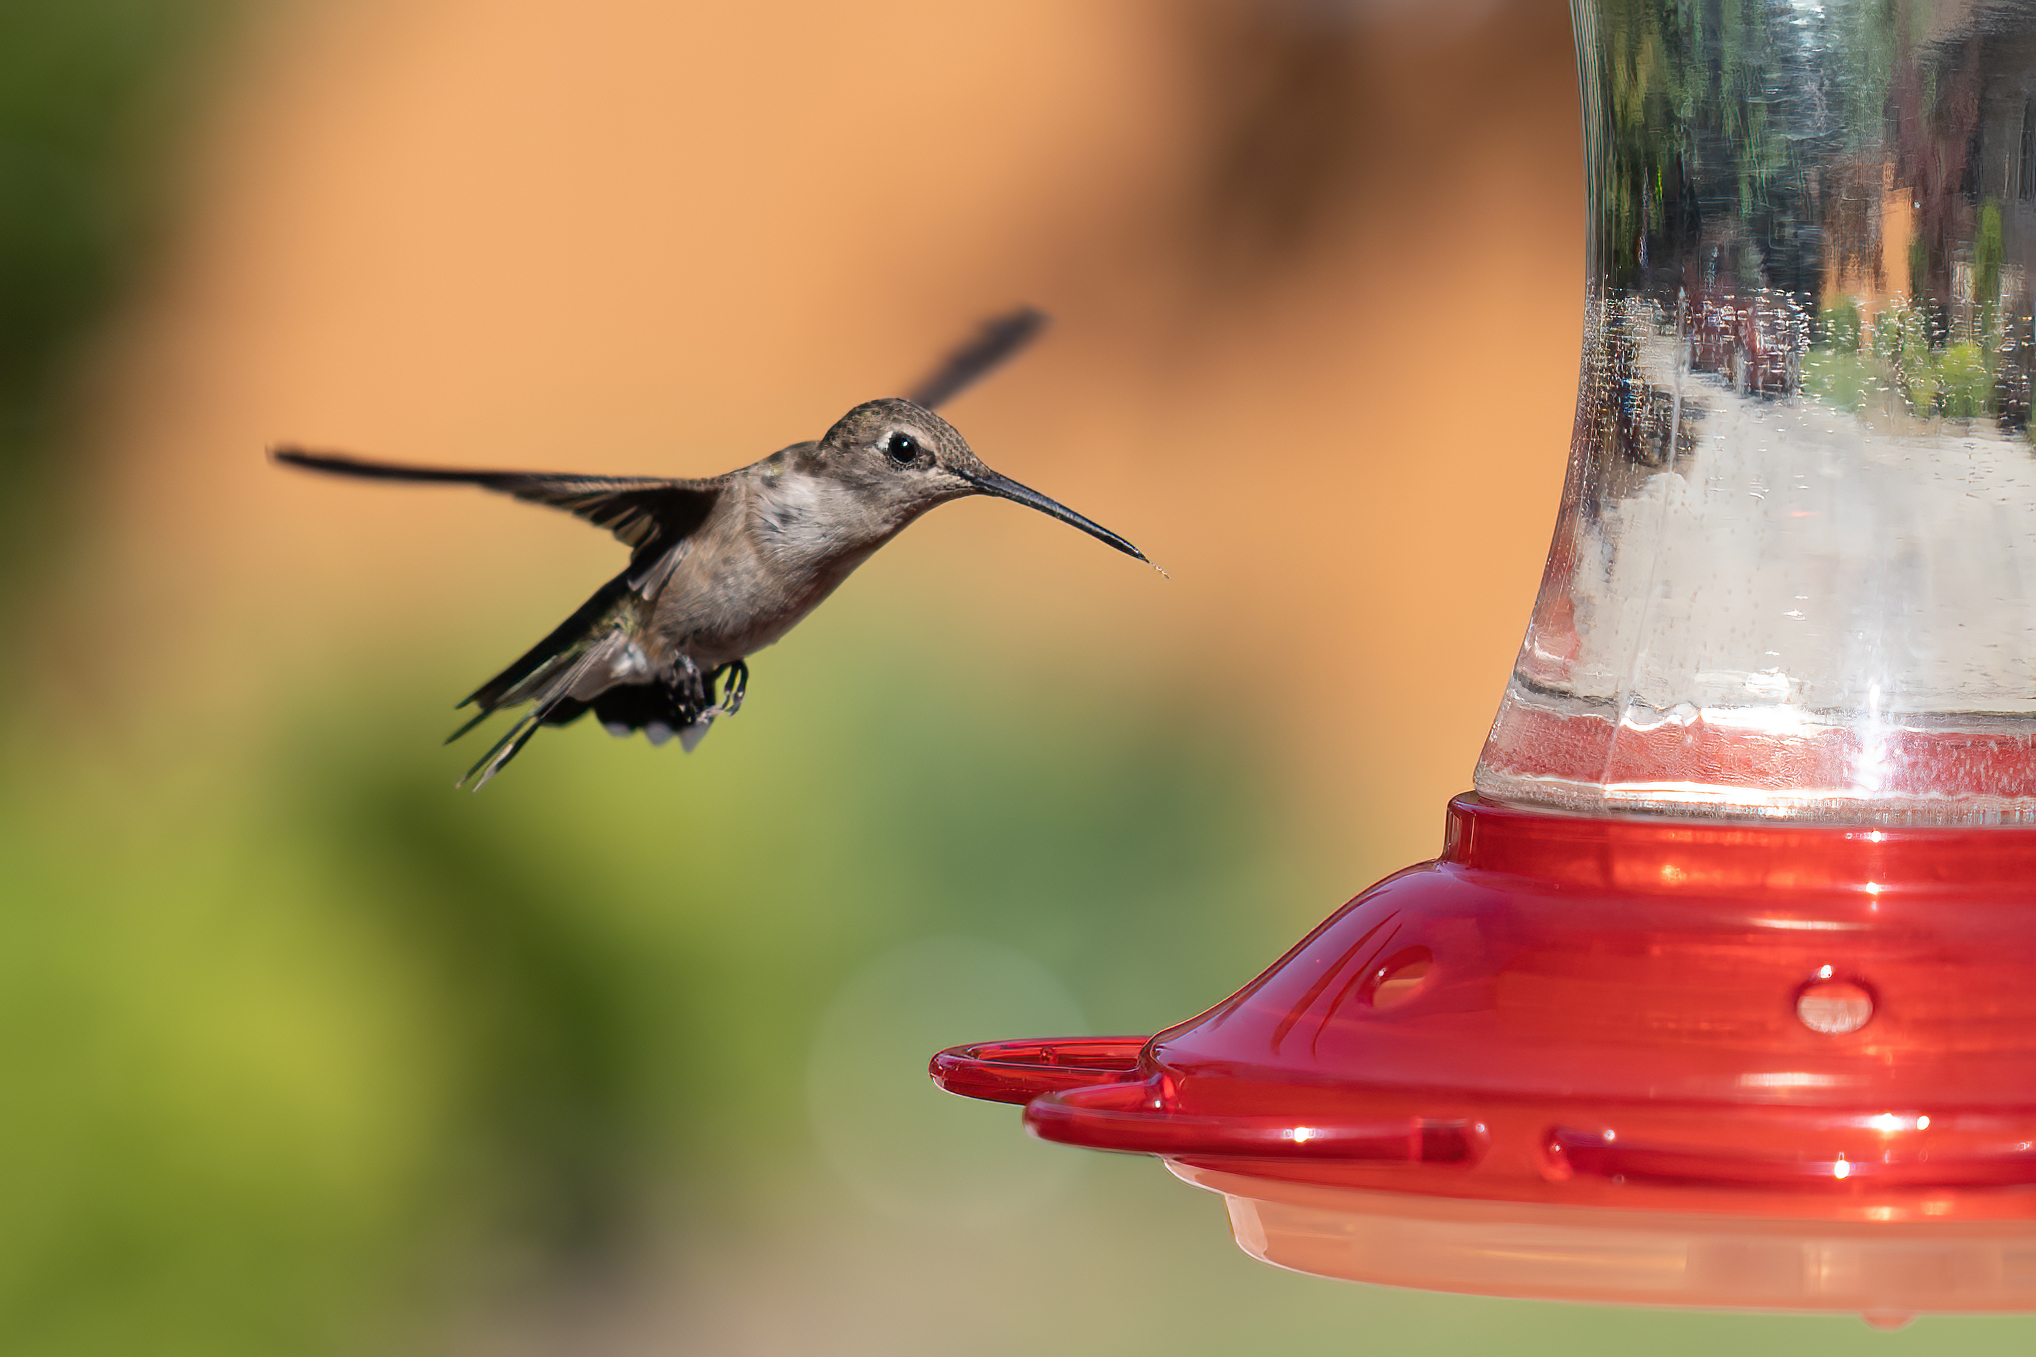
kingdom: Animalia
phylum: Chordata
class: Aves
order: Apodiformes
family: Trochilidae
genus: Archilochus
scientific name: Archilochus alexandri
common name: Black-chinned hummingbird
